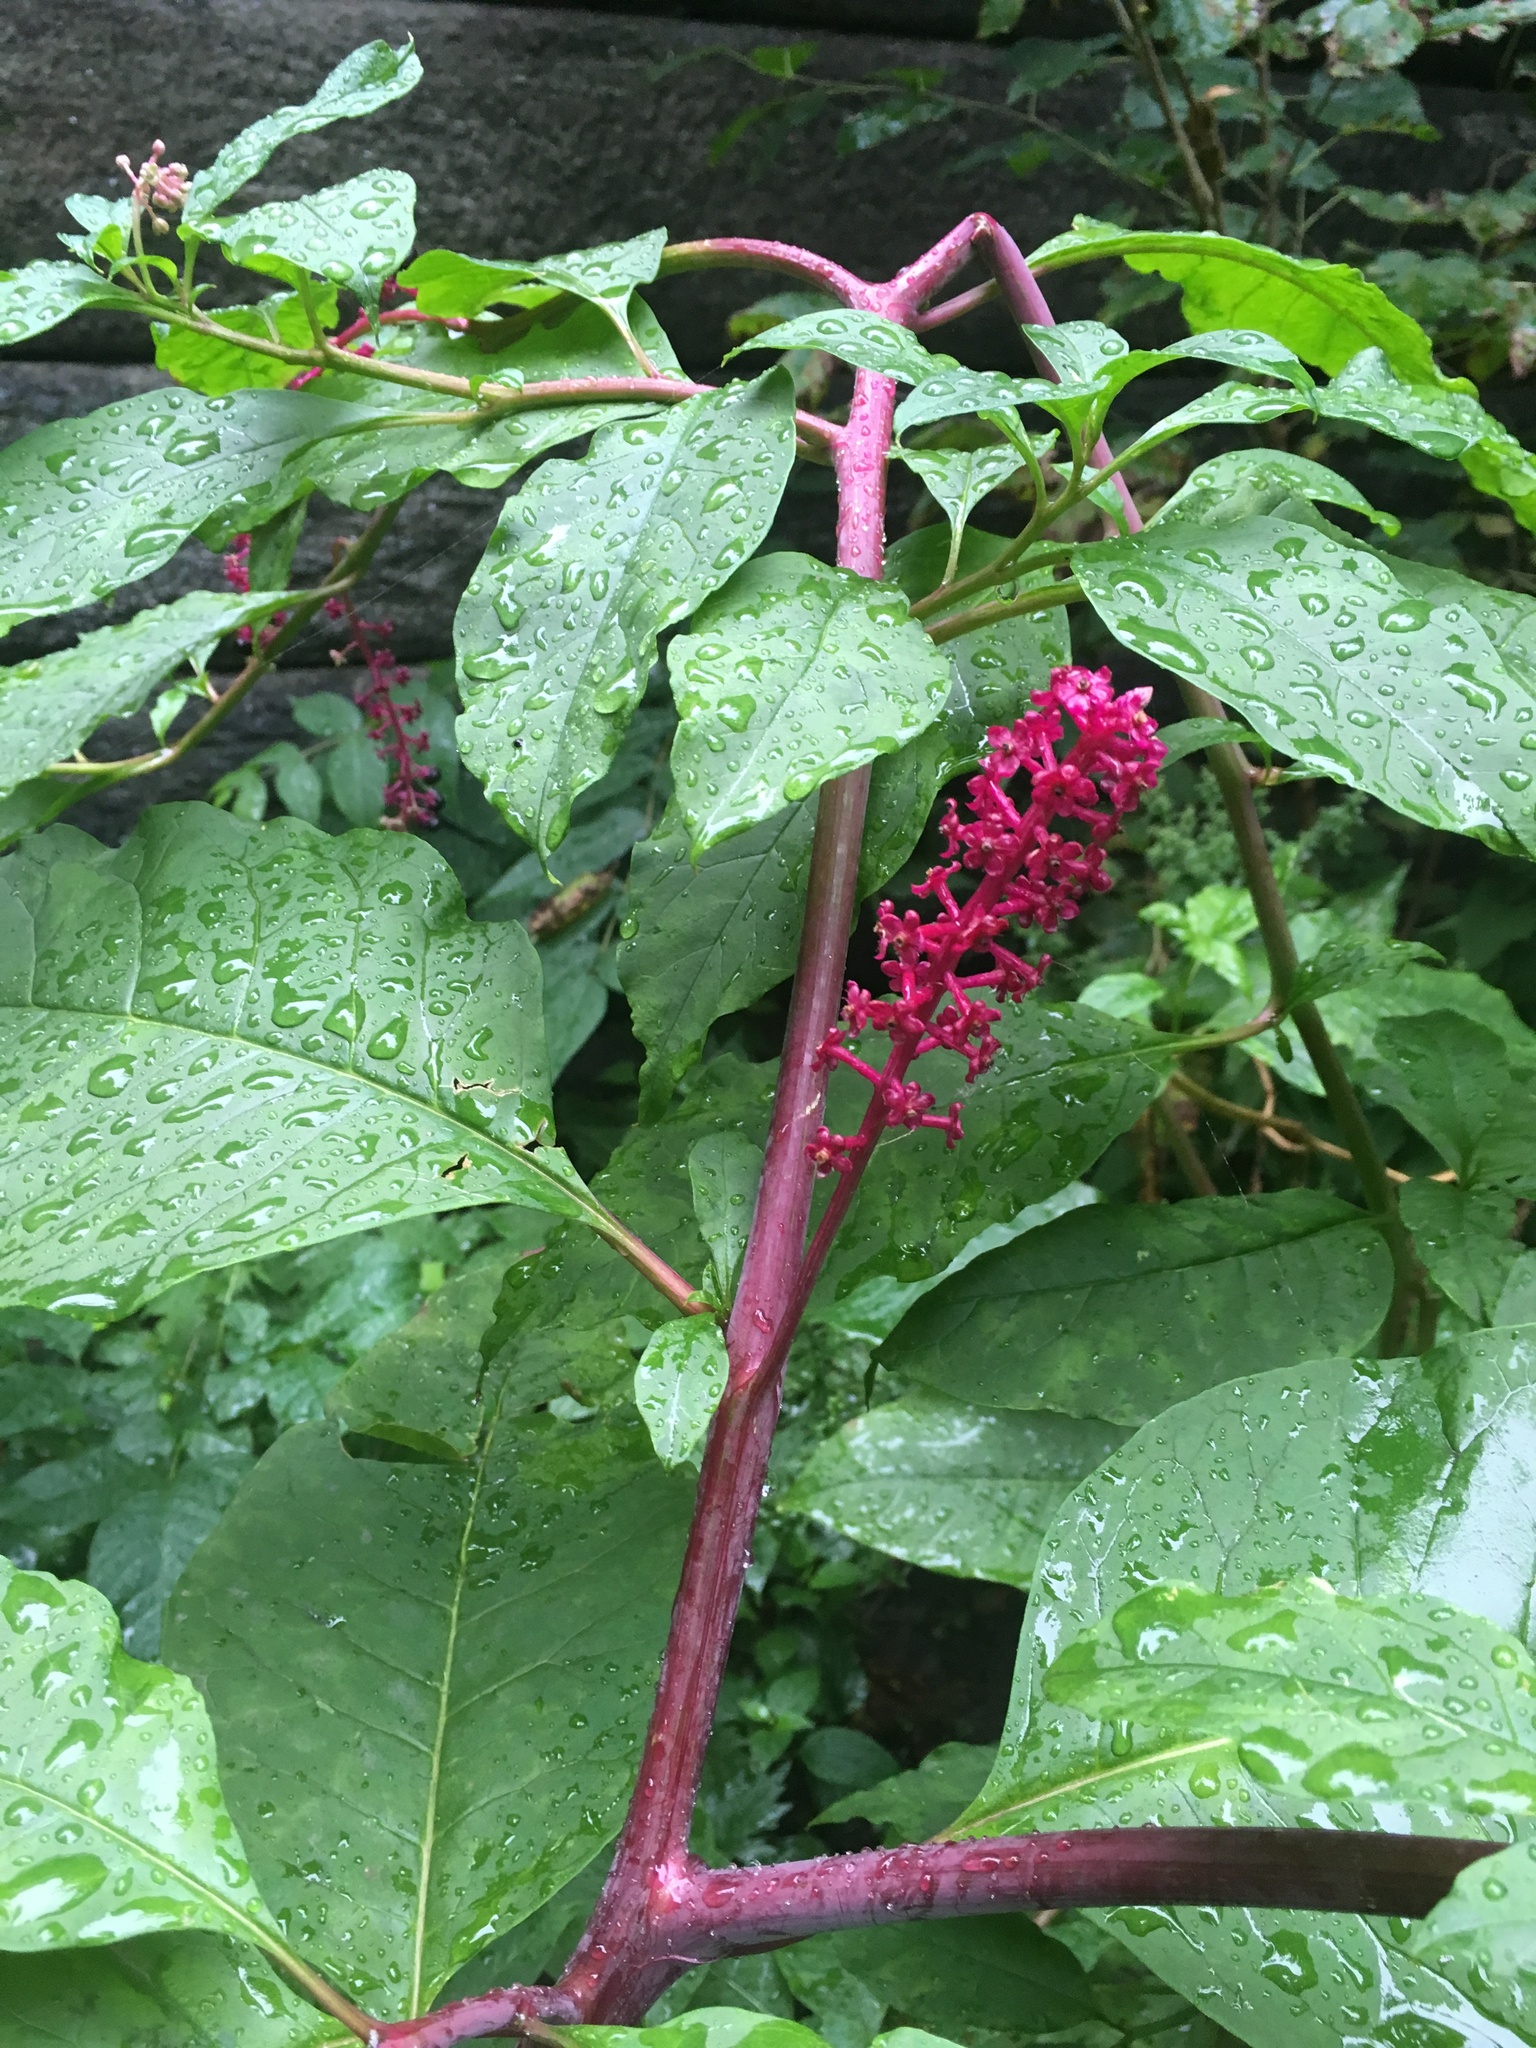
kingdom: Plantae
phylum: Tracheophyta
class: Magnoliopsida
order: Caryophyllales
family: Phytolaccaceae
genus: Phytolacca
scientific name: Phytolacca americana
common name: American pokeweed
